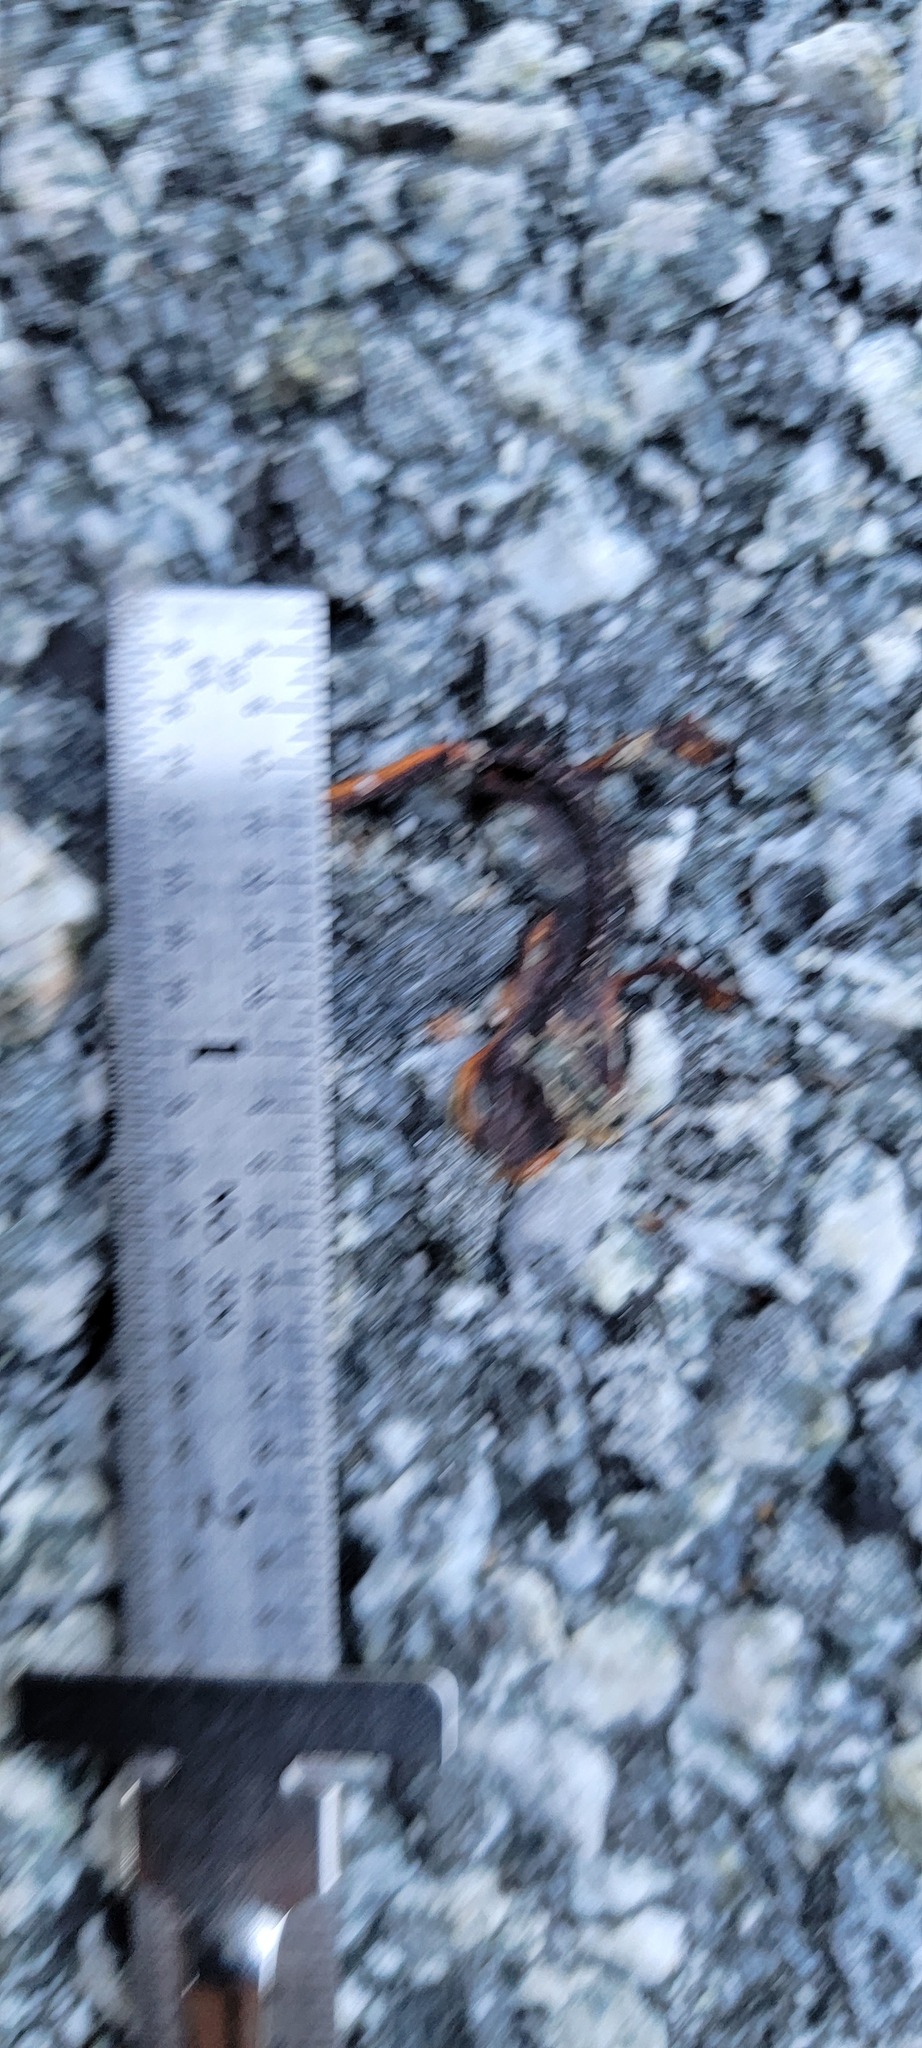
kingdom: Animalia
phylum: Chordata
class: Amphibia
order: Caudata
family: Salamandridae
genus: Taricha
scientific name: Taricha
